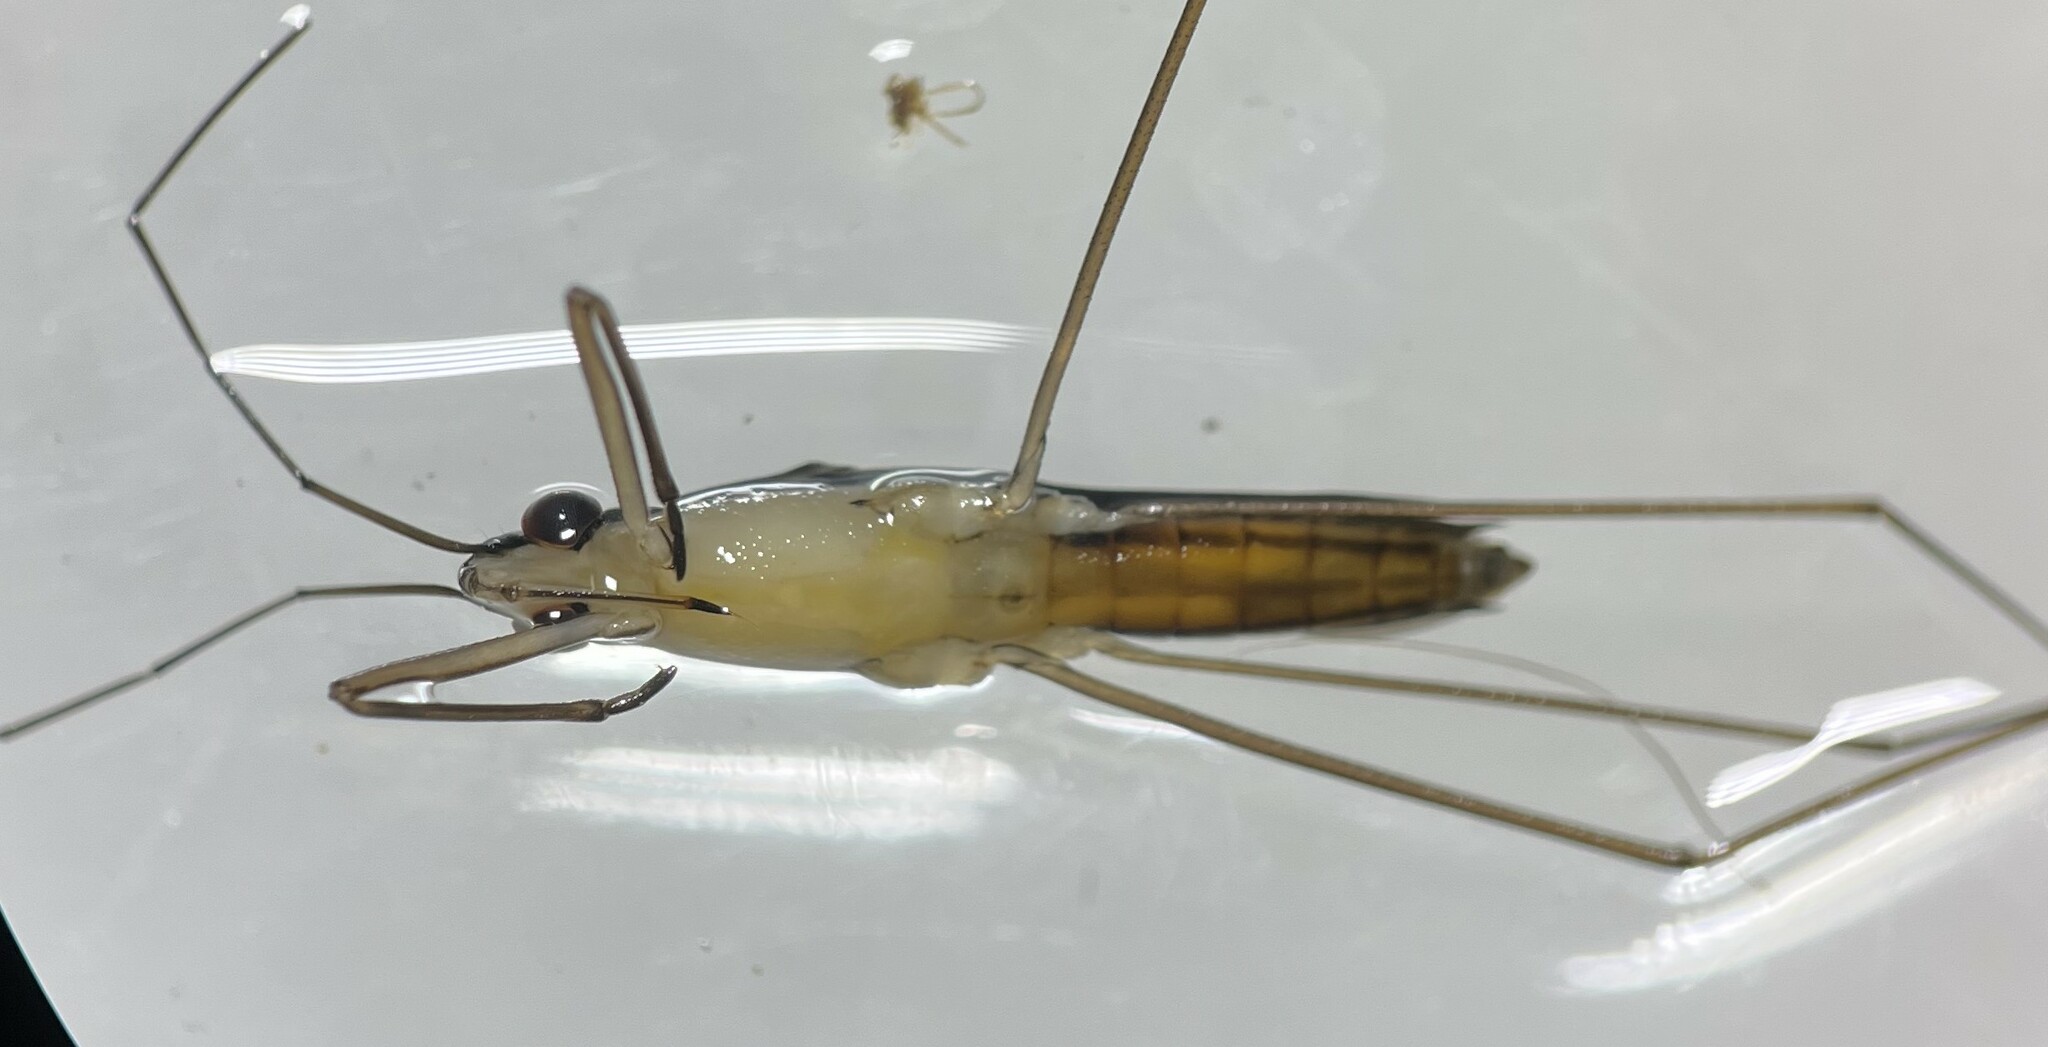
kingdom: Animalia
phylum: Arthropoda
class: Insecta
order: Hemiptera
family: Gerridae
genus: Limnoporus
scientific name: Limnoporus canaliculatus
